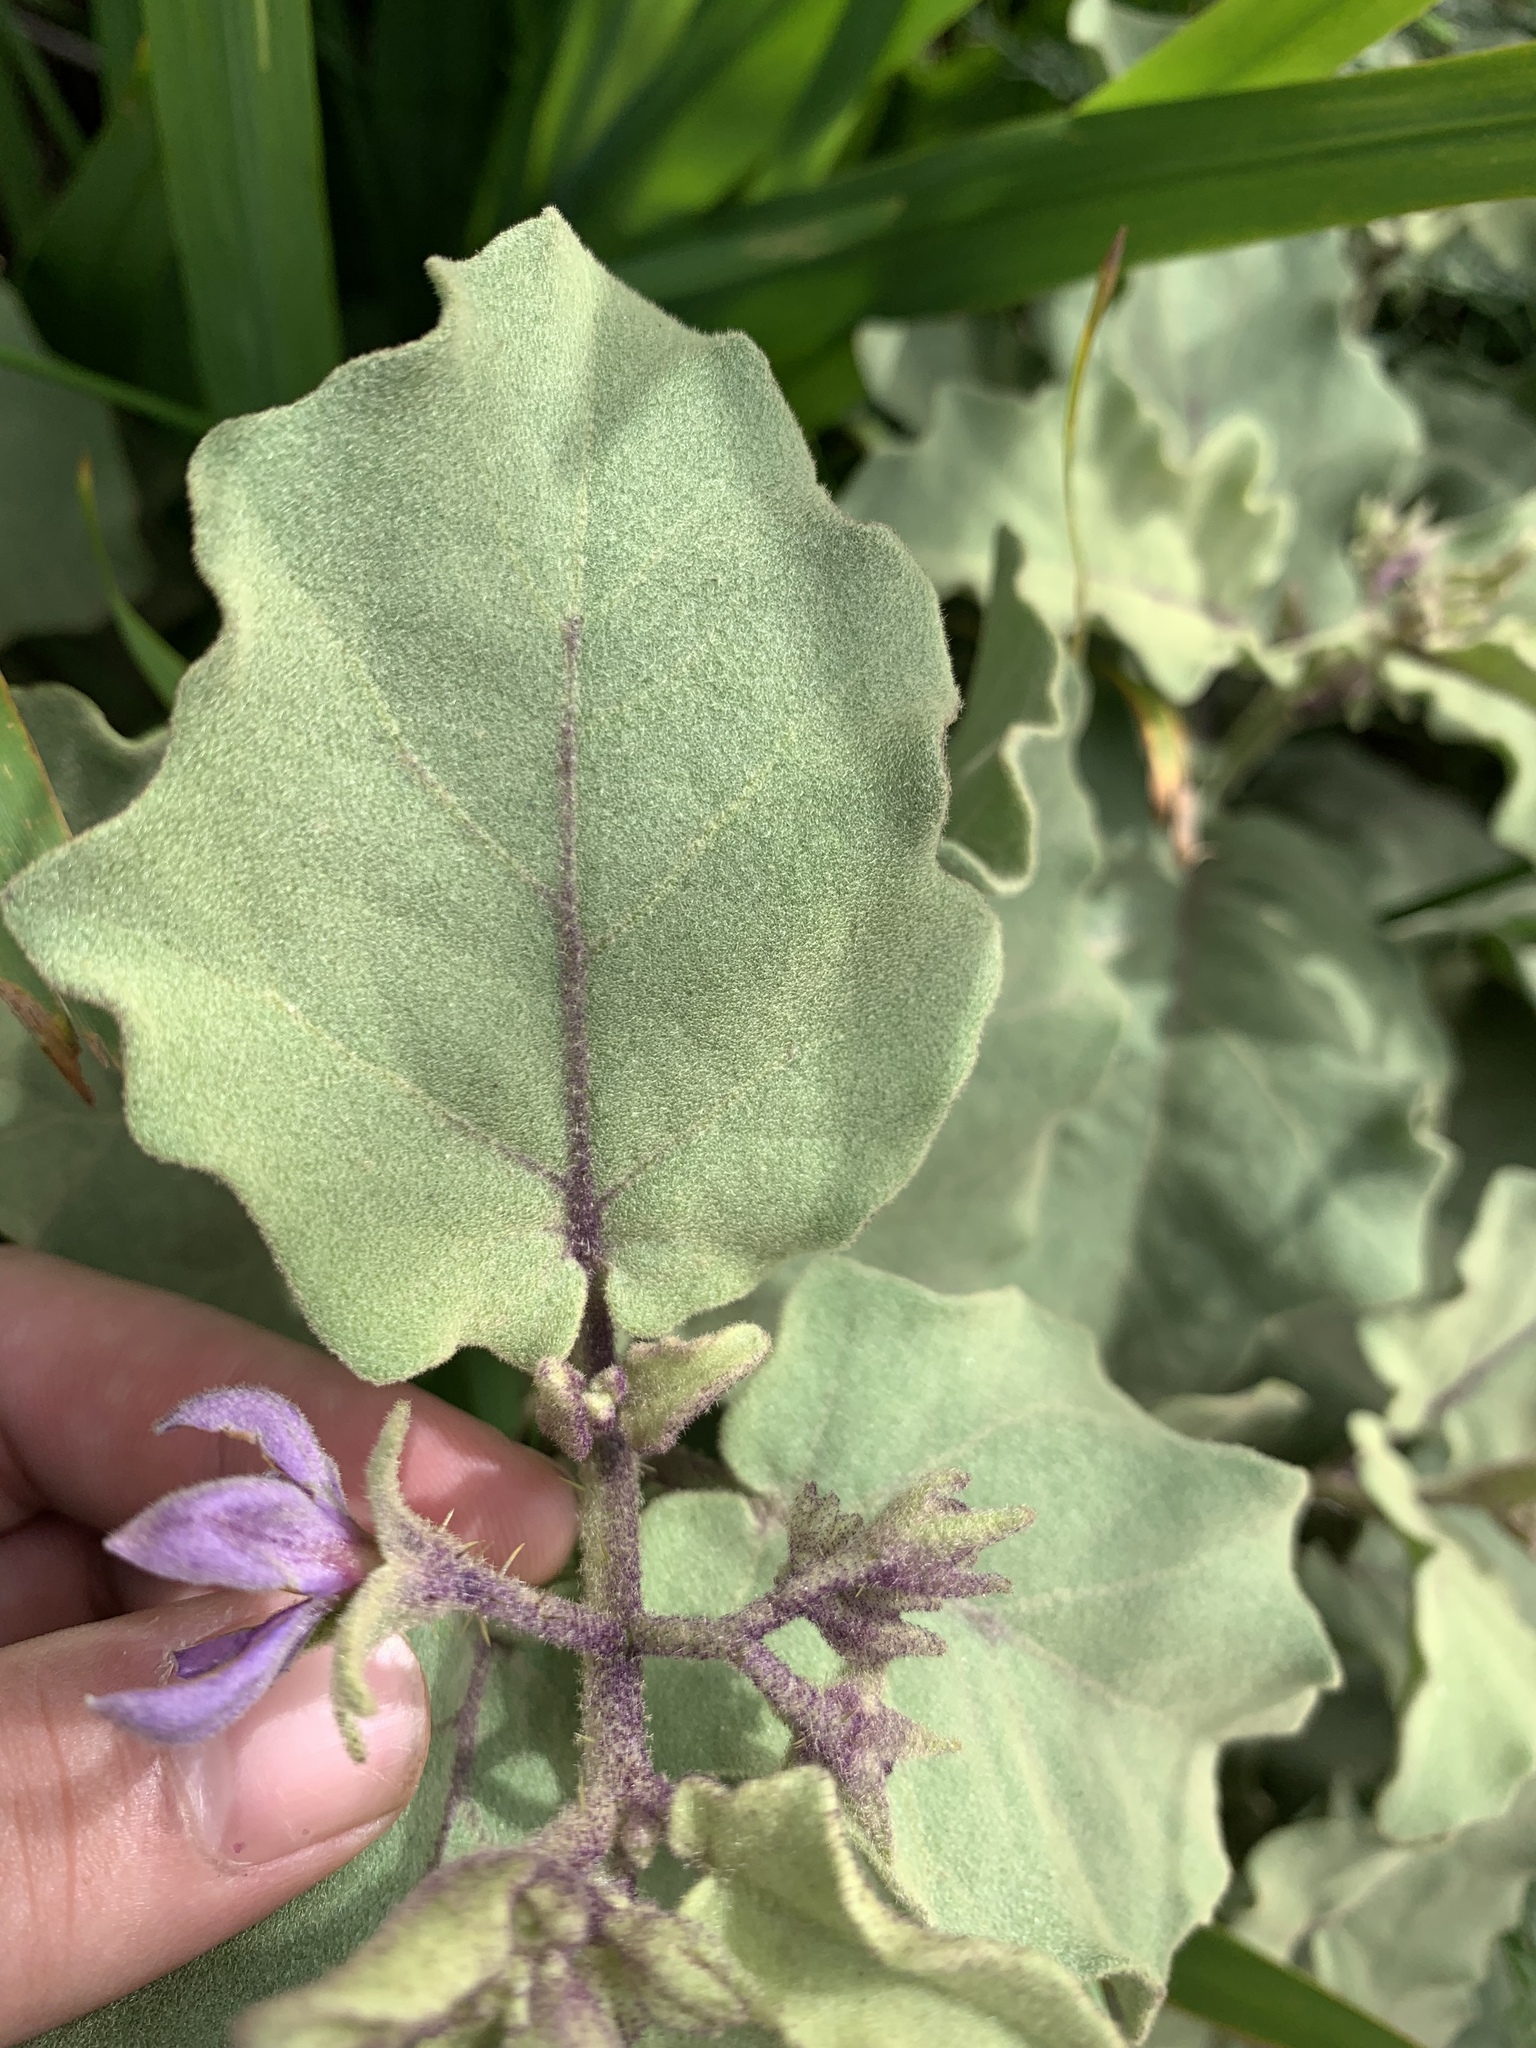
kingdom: Plantae
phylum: Tracheophyta
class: Magnoliopsida
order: Solanales
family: Solanaceae
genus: Solanum
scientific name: Solanum tomentosum
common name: Wild aubergine
